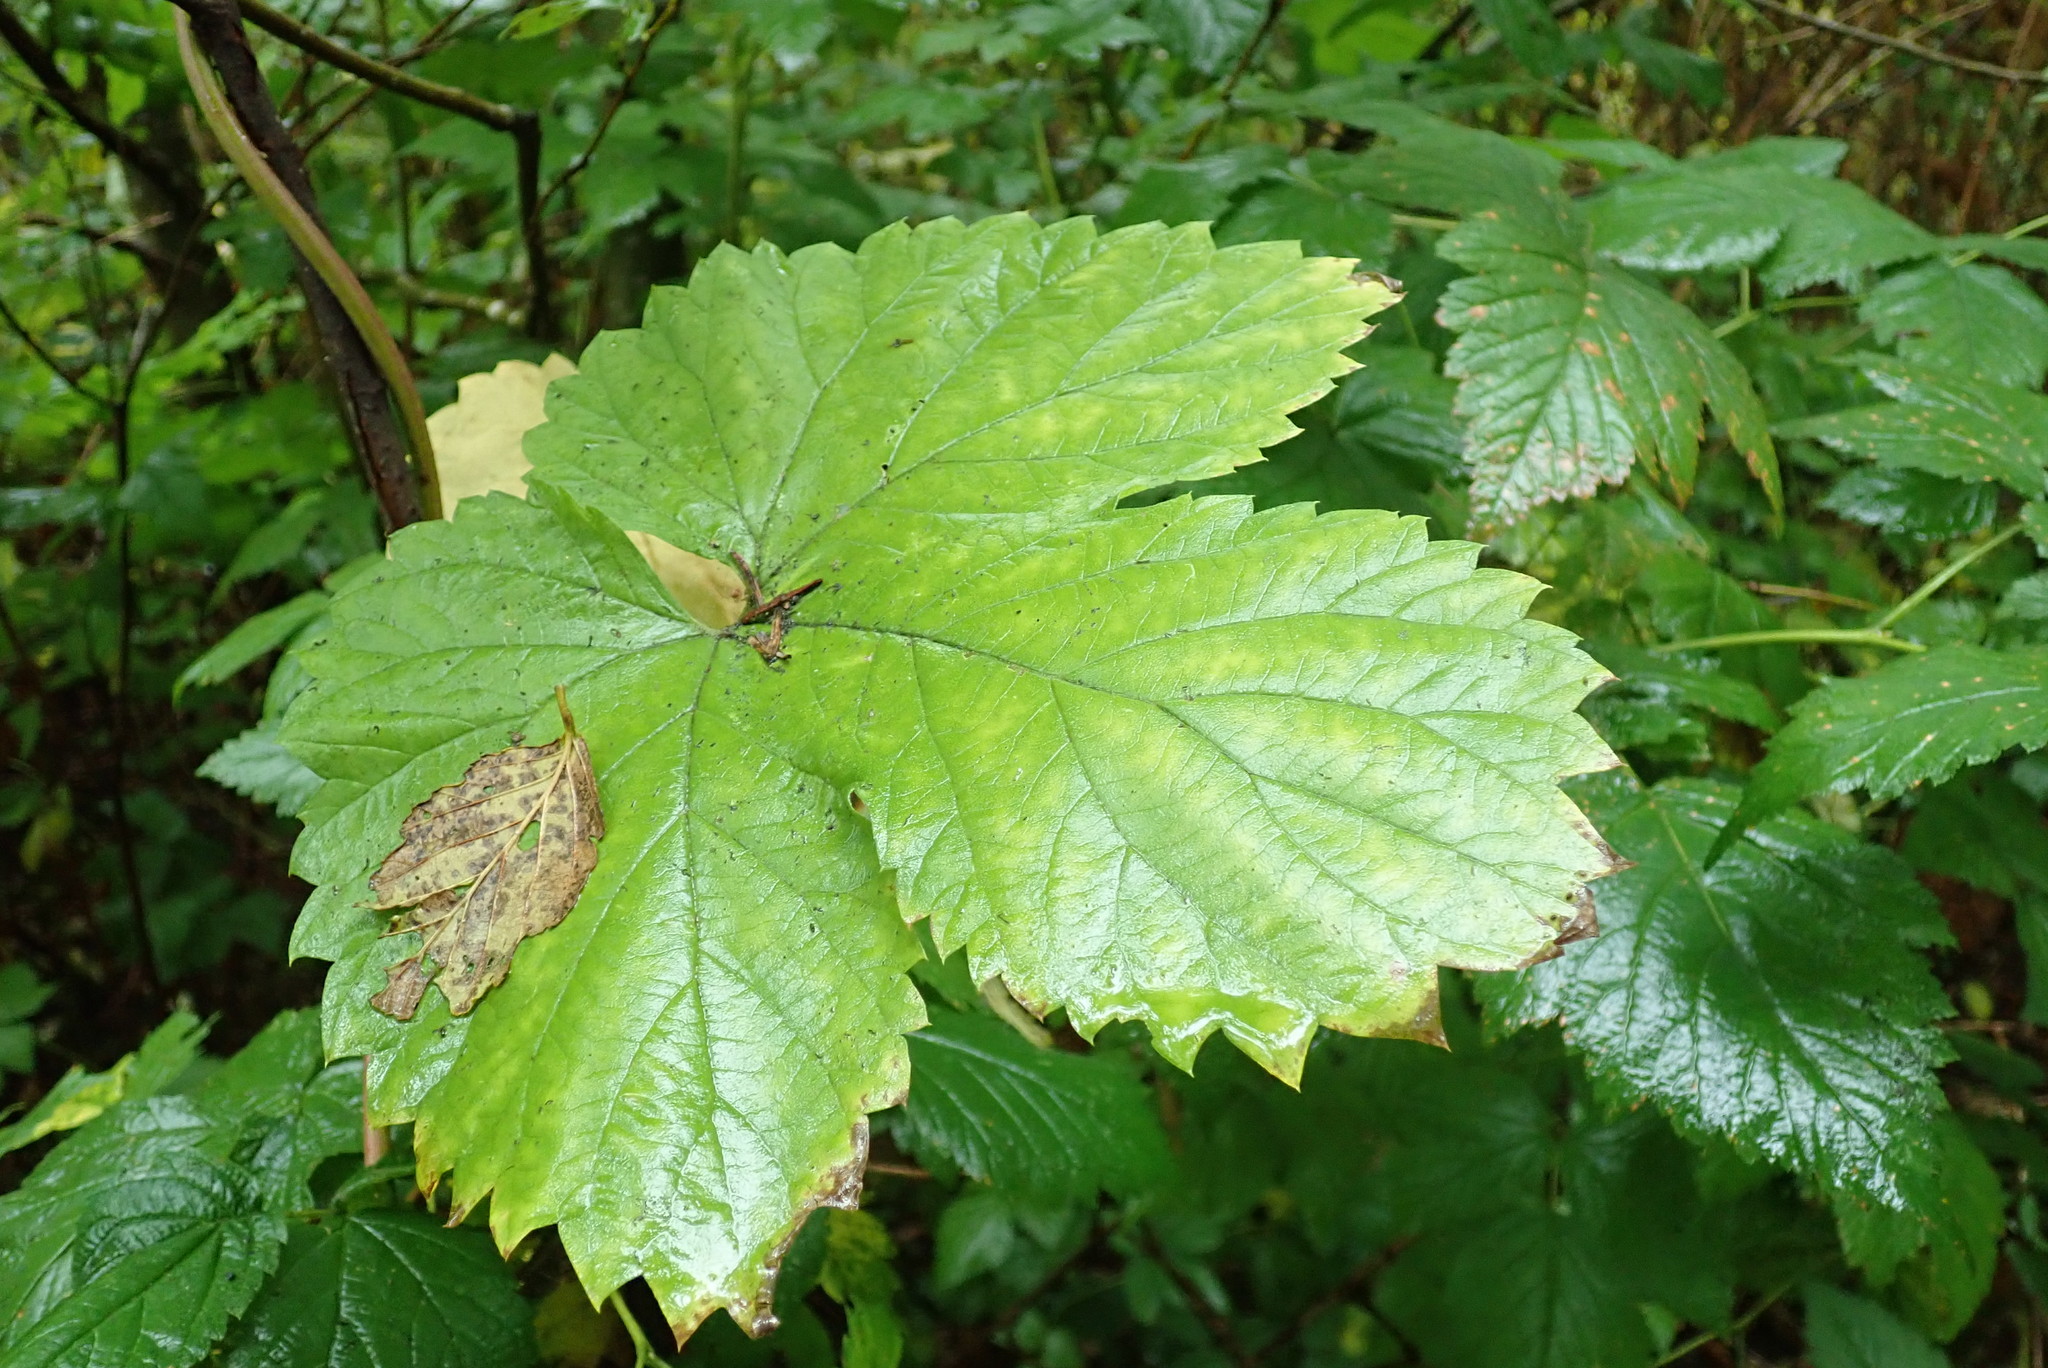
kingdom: Plantae
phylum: Tracheophyta
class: Magnoliopsida
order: Rosales
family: Cannabaceae
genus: Humulus
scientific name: Humulus lupulus
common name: Hop
